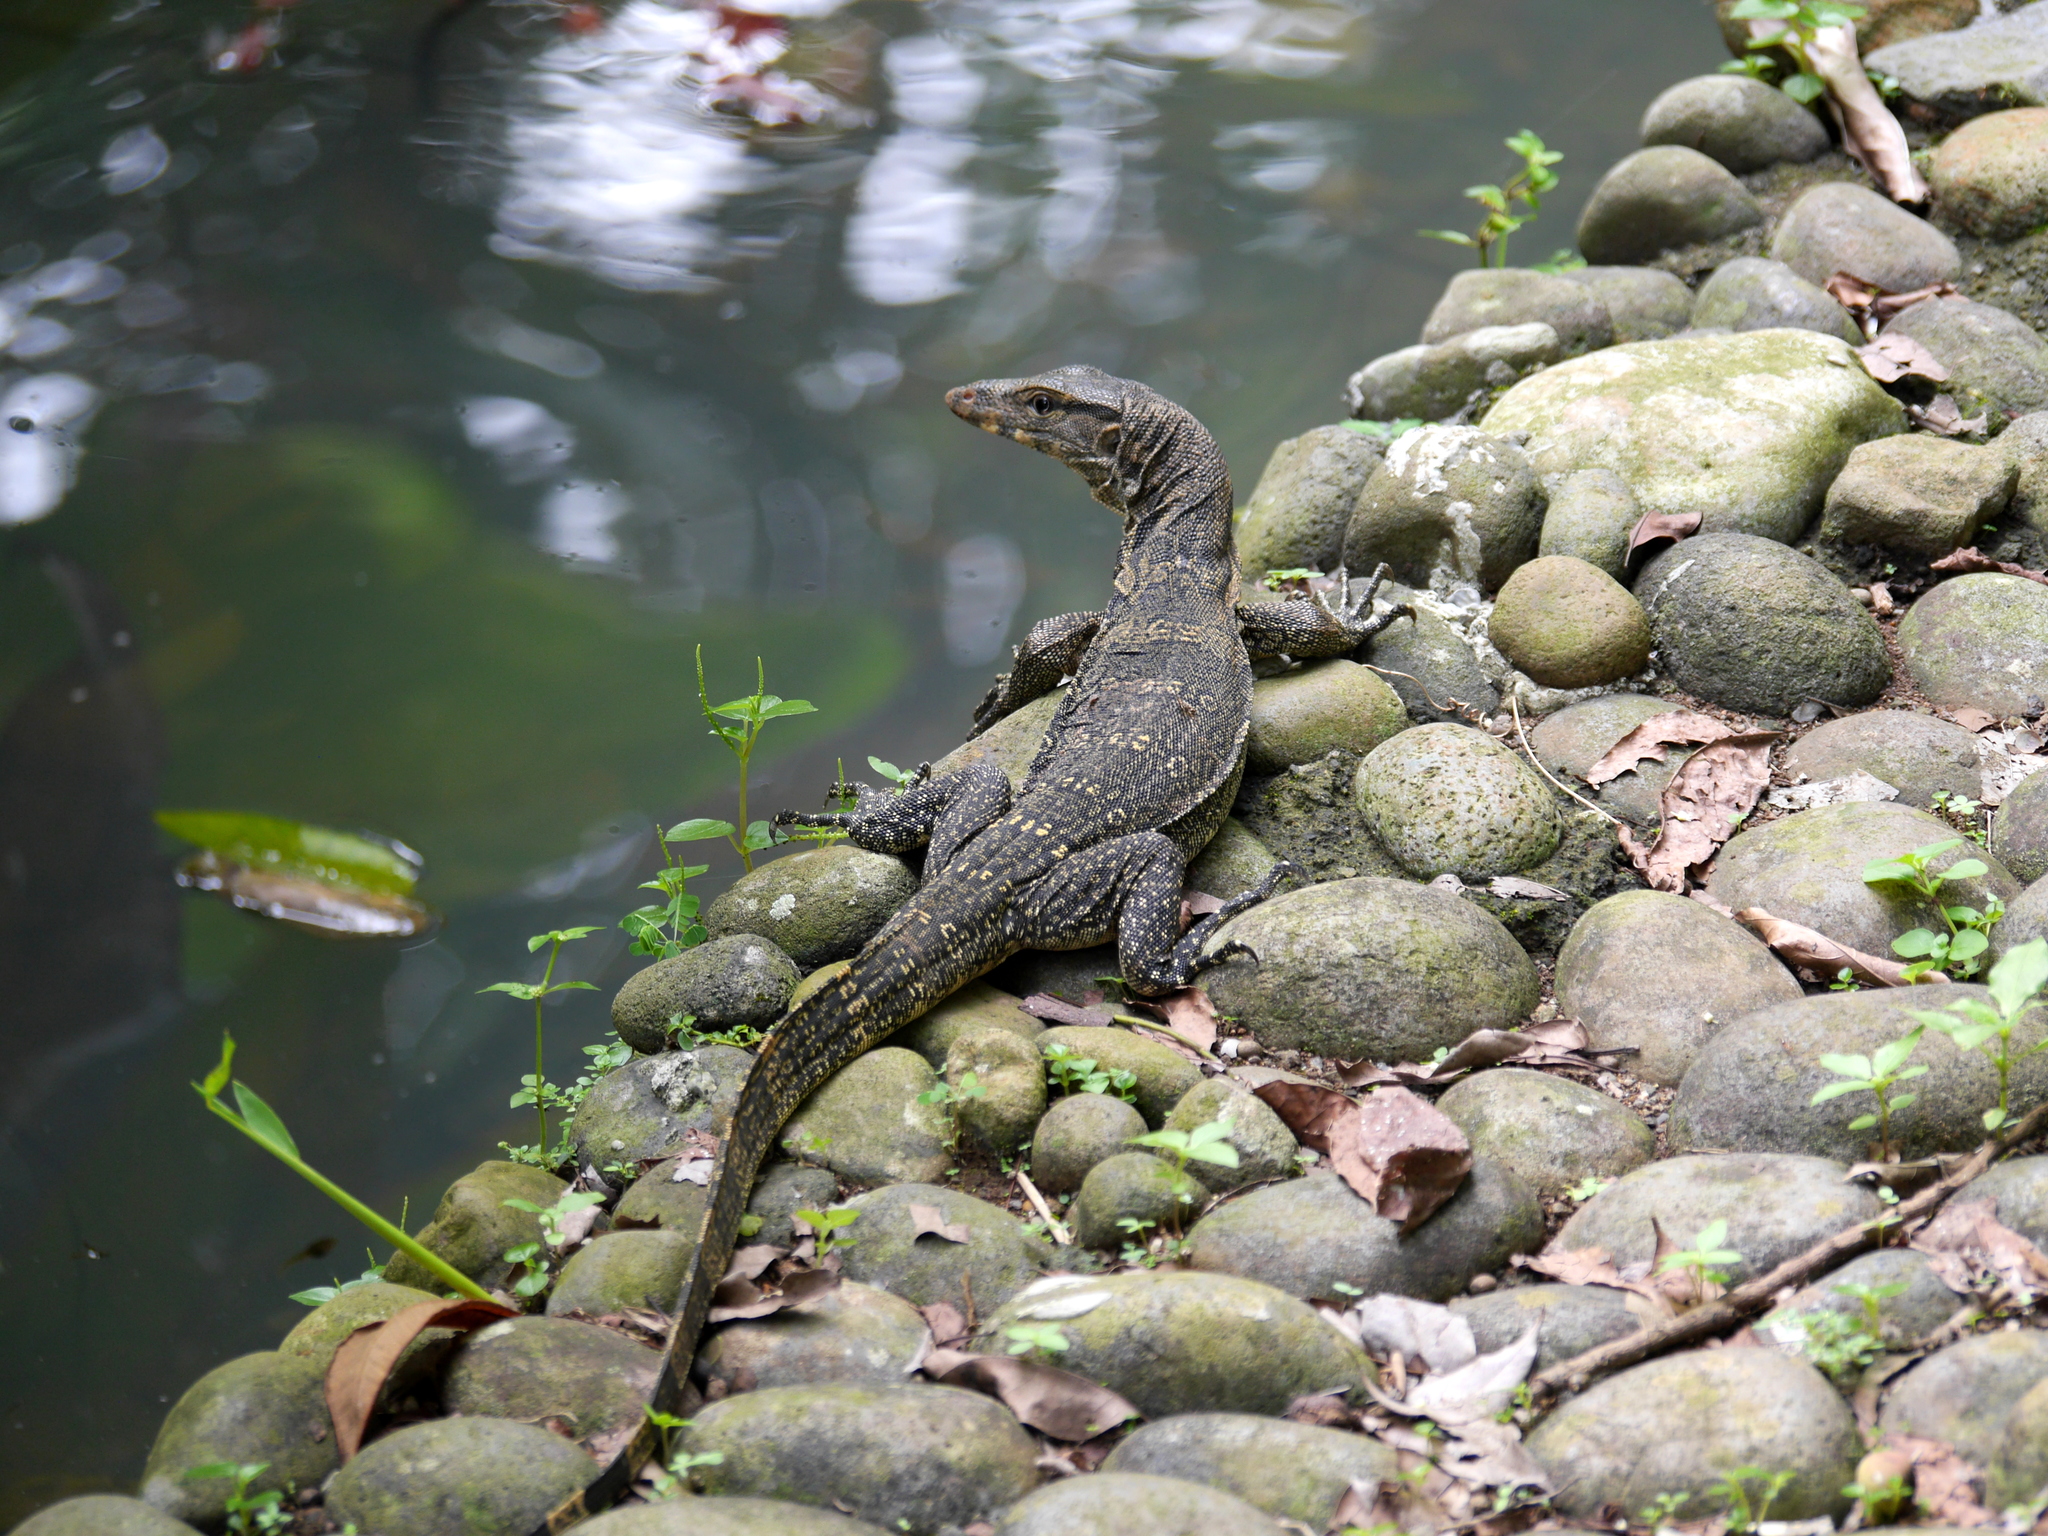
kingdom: Animalia
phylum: Chordata
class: Squamata
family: Varanidae
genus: Varanus
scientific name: Varanus salvator
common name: Common water monitor
